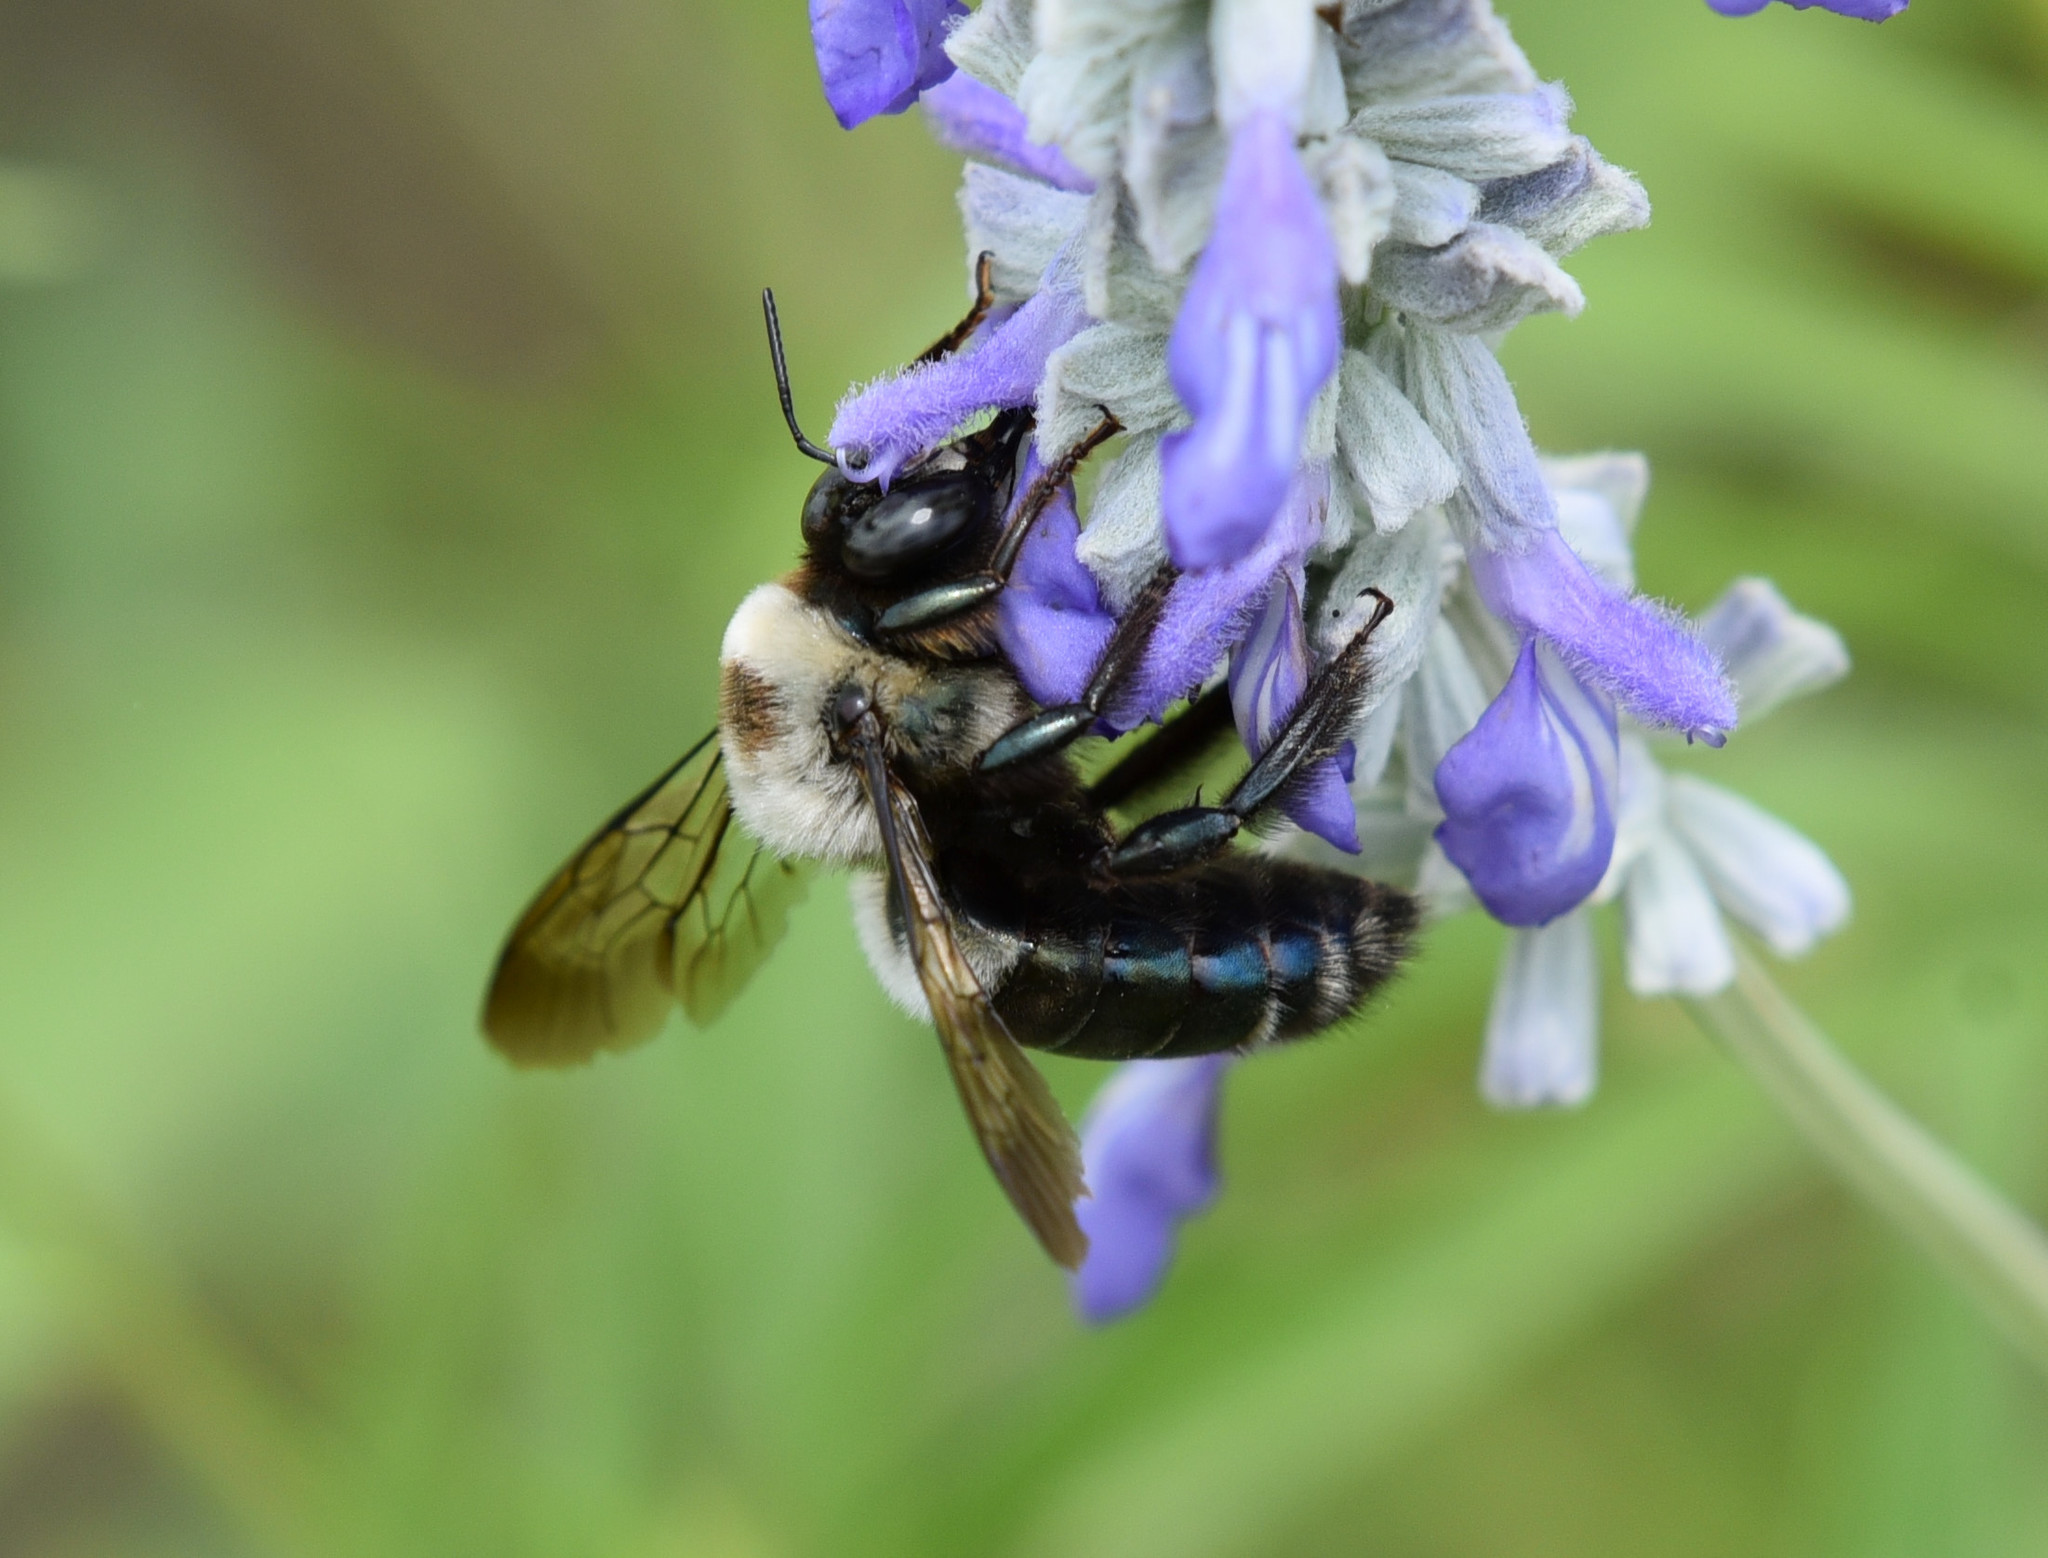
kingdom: Animalia
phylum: Arthropoda
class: Insecta
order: Hymenoptera
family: Apidae
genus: Xylocopa
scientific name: Xylocopa virginica
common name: Carpenter bee
